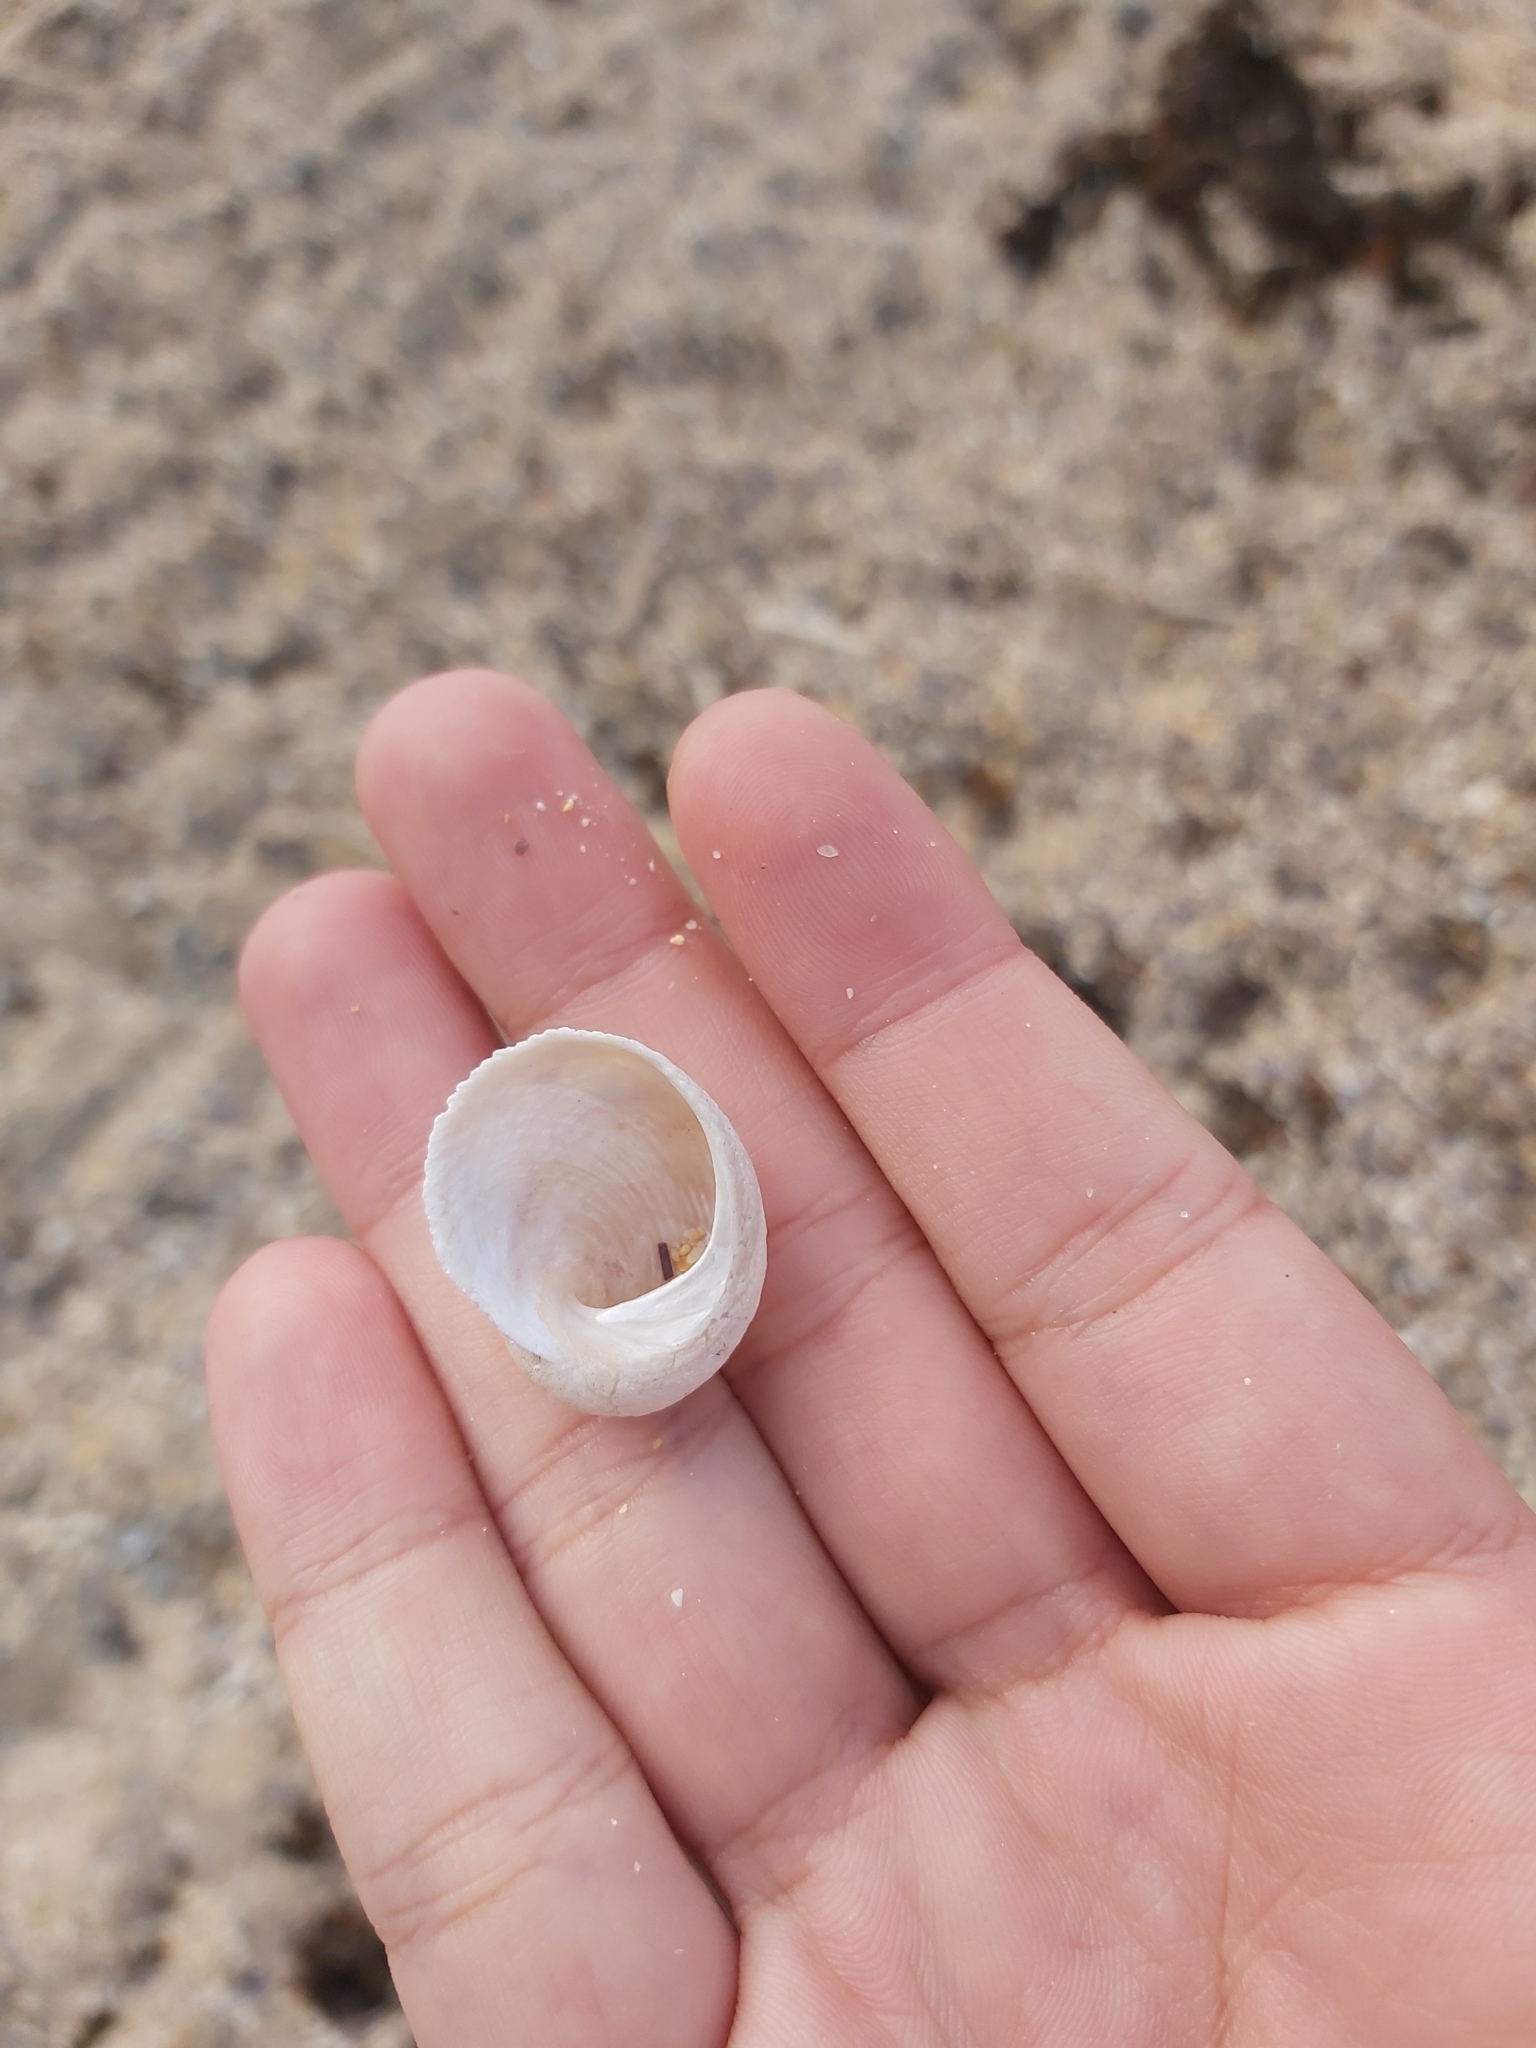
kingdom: Animalia
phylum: Mollusca
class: Gastropoda
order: Seguenziida
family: Chilodontaidae
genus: Granata
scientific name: Granata imbricata
